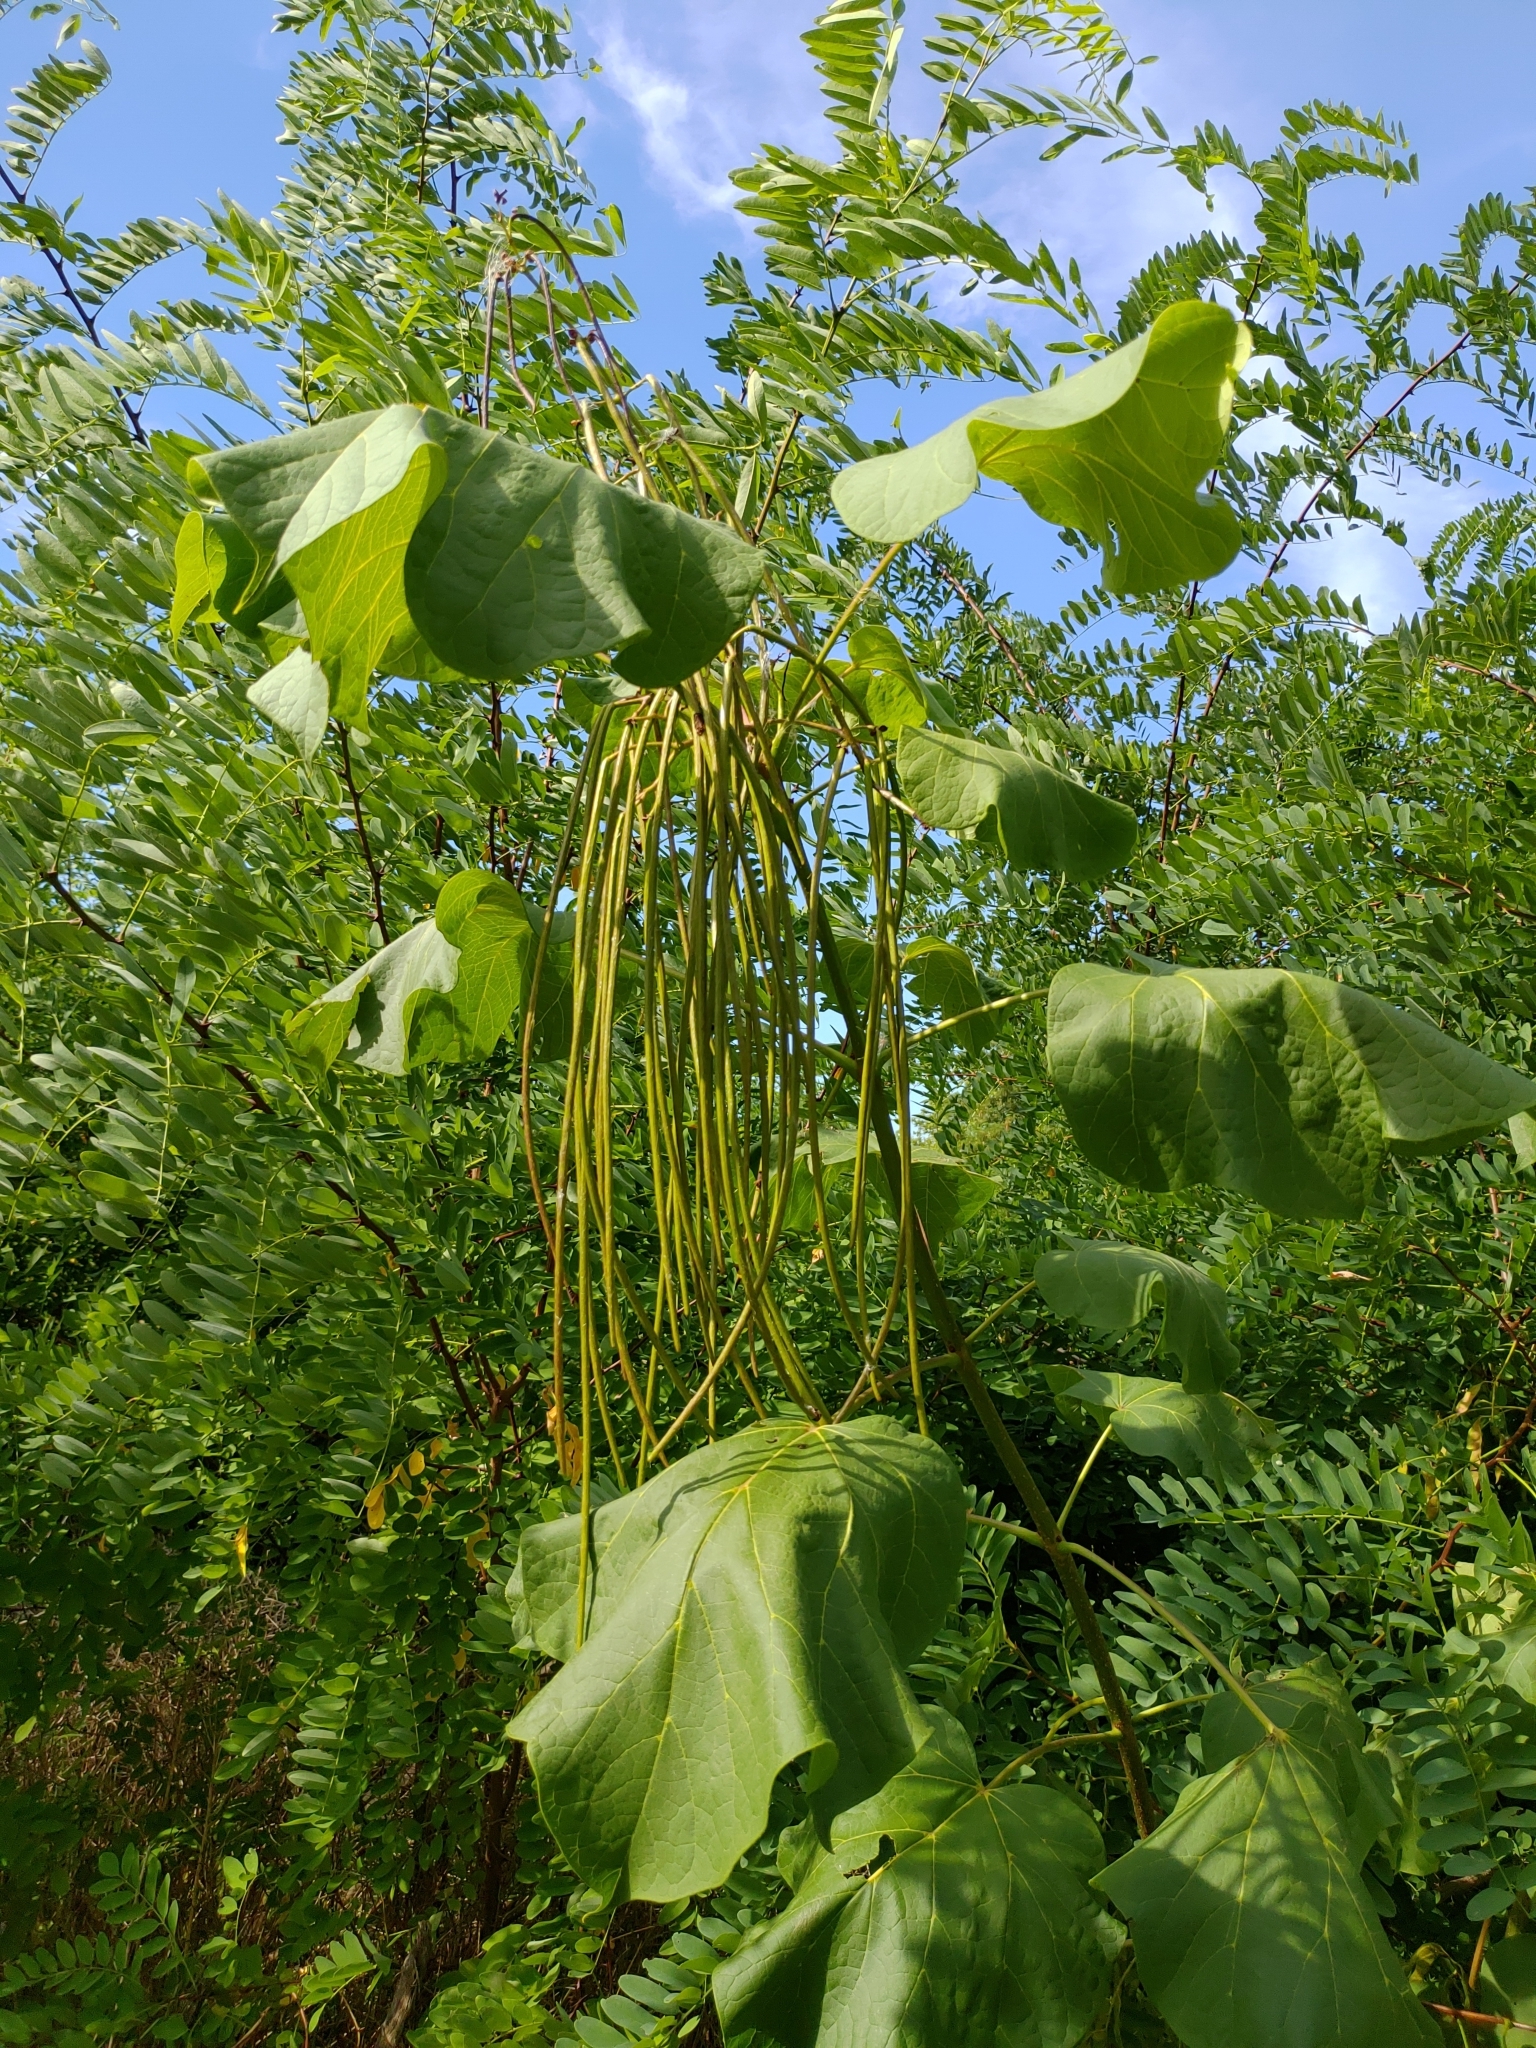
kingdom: Plantae
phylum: Tracheophyta
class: Magnoliopsida
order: Lamiales
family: Bignoniaceae
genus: Catalpa
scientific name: Catalpa speciosa
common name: Northern catalpa
